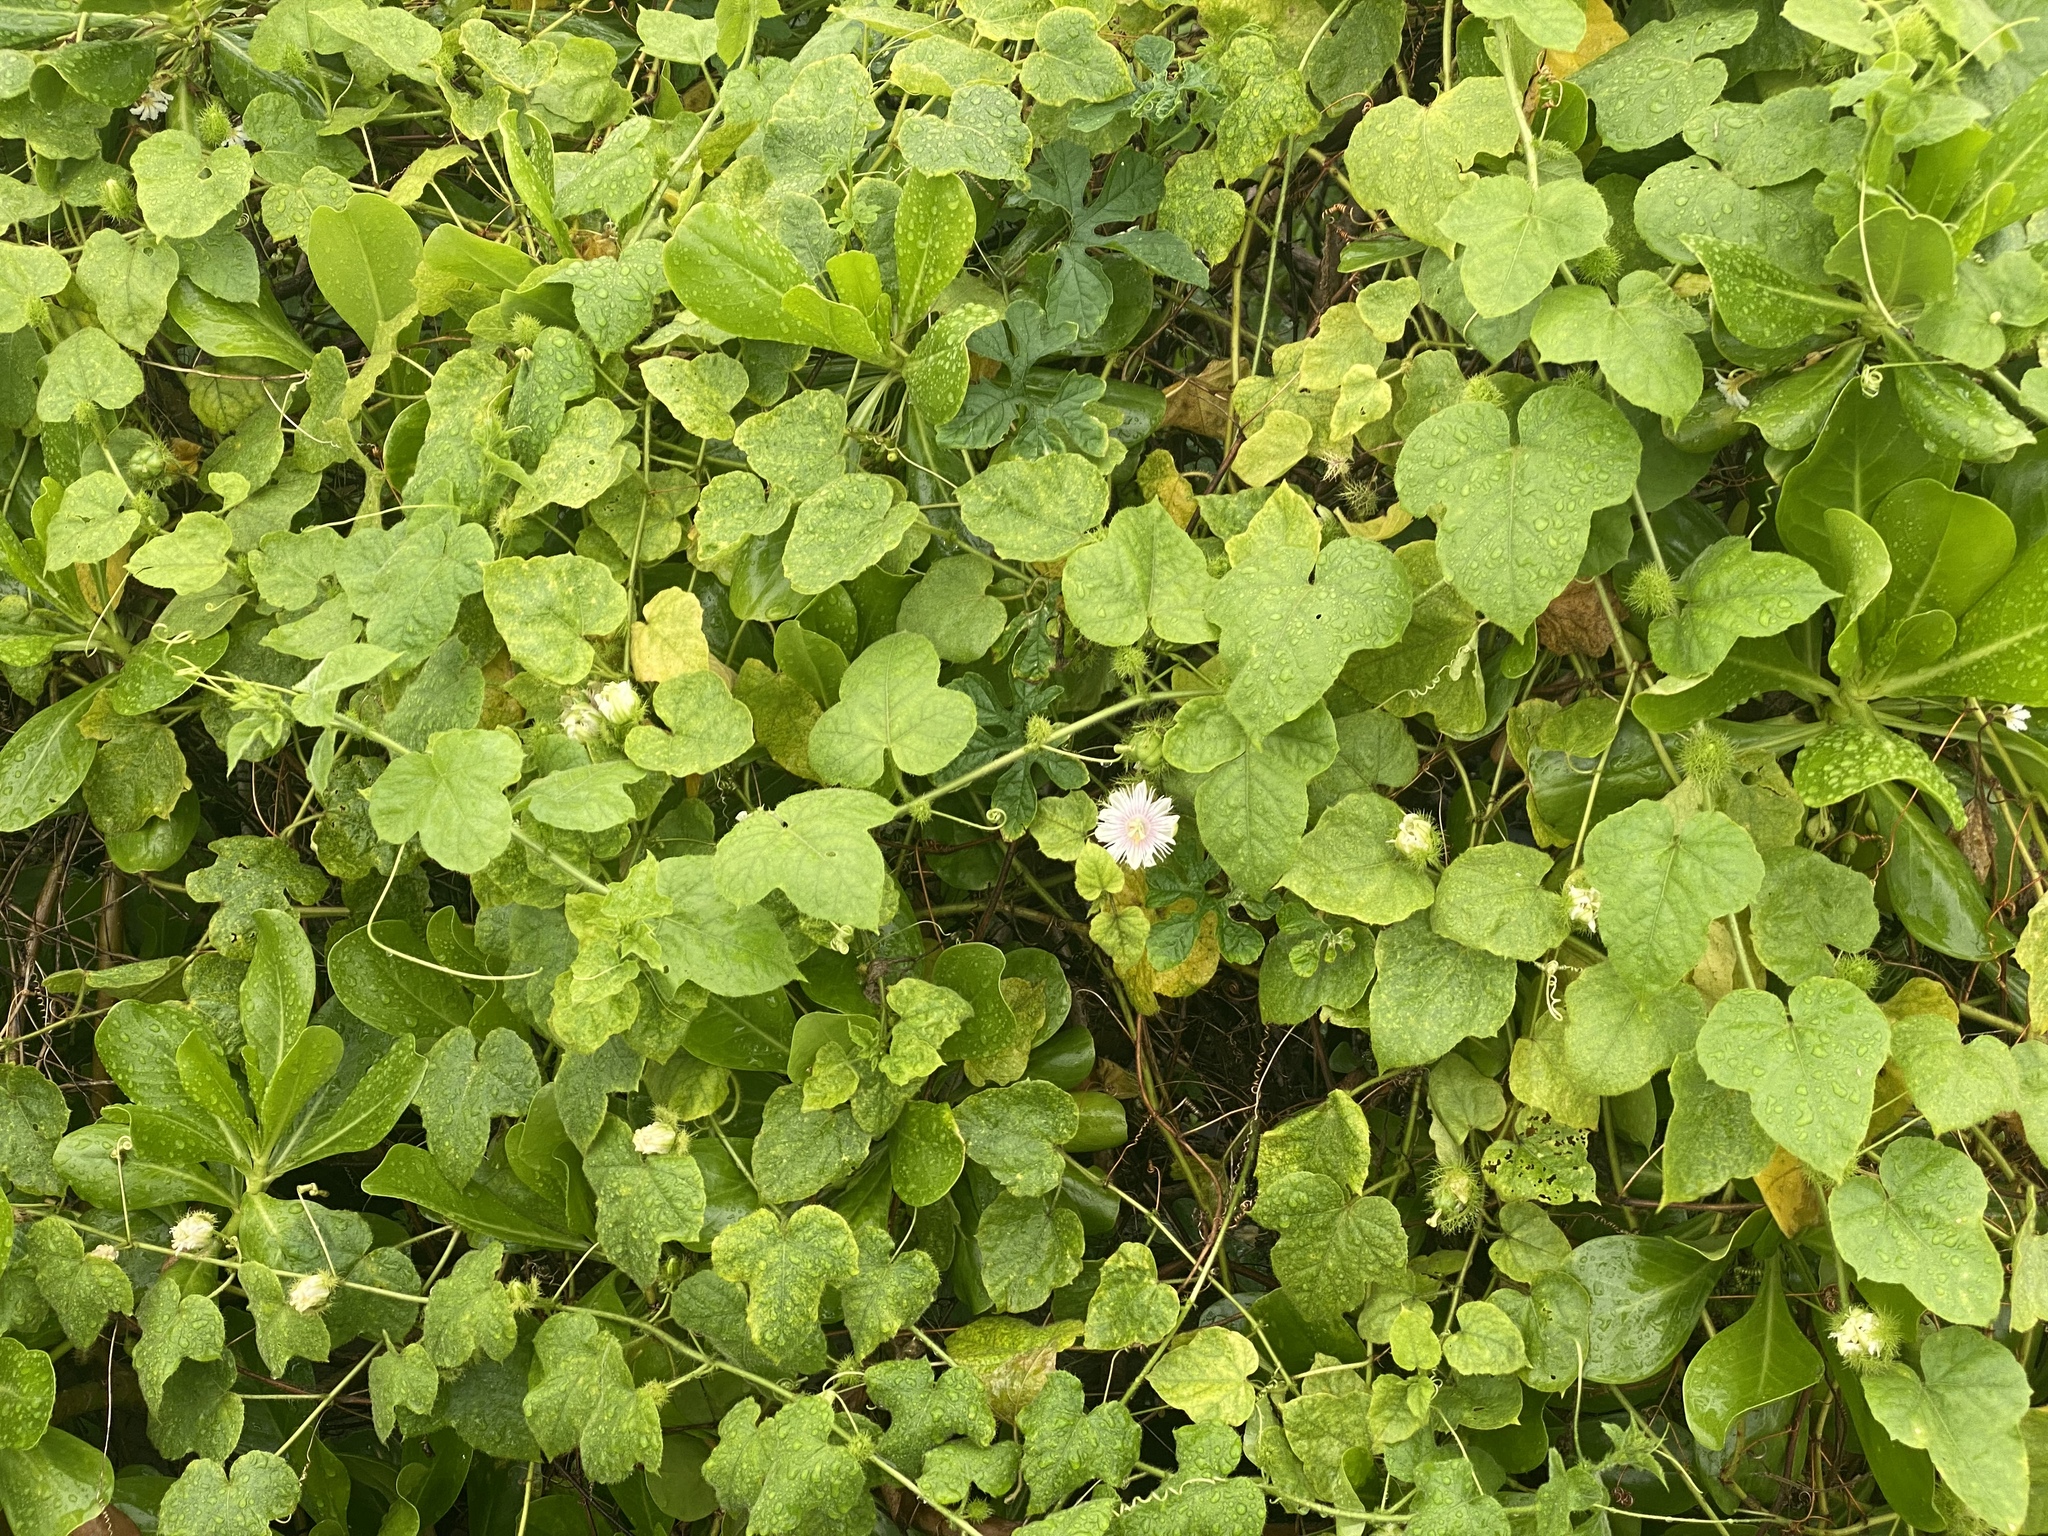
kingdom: Plantae
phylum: Tracheophyta
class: Magnoliopsida
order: Malpighiales
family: Passifloraceae
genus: Passiflora
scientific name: Passiflora vesicaria
